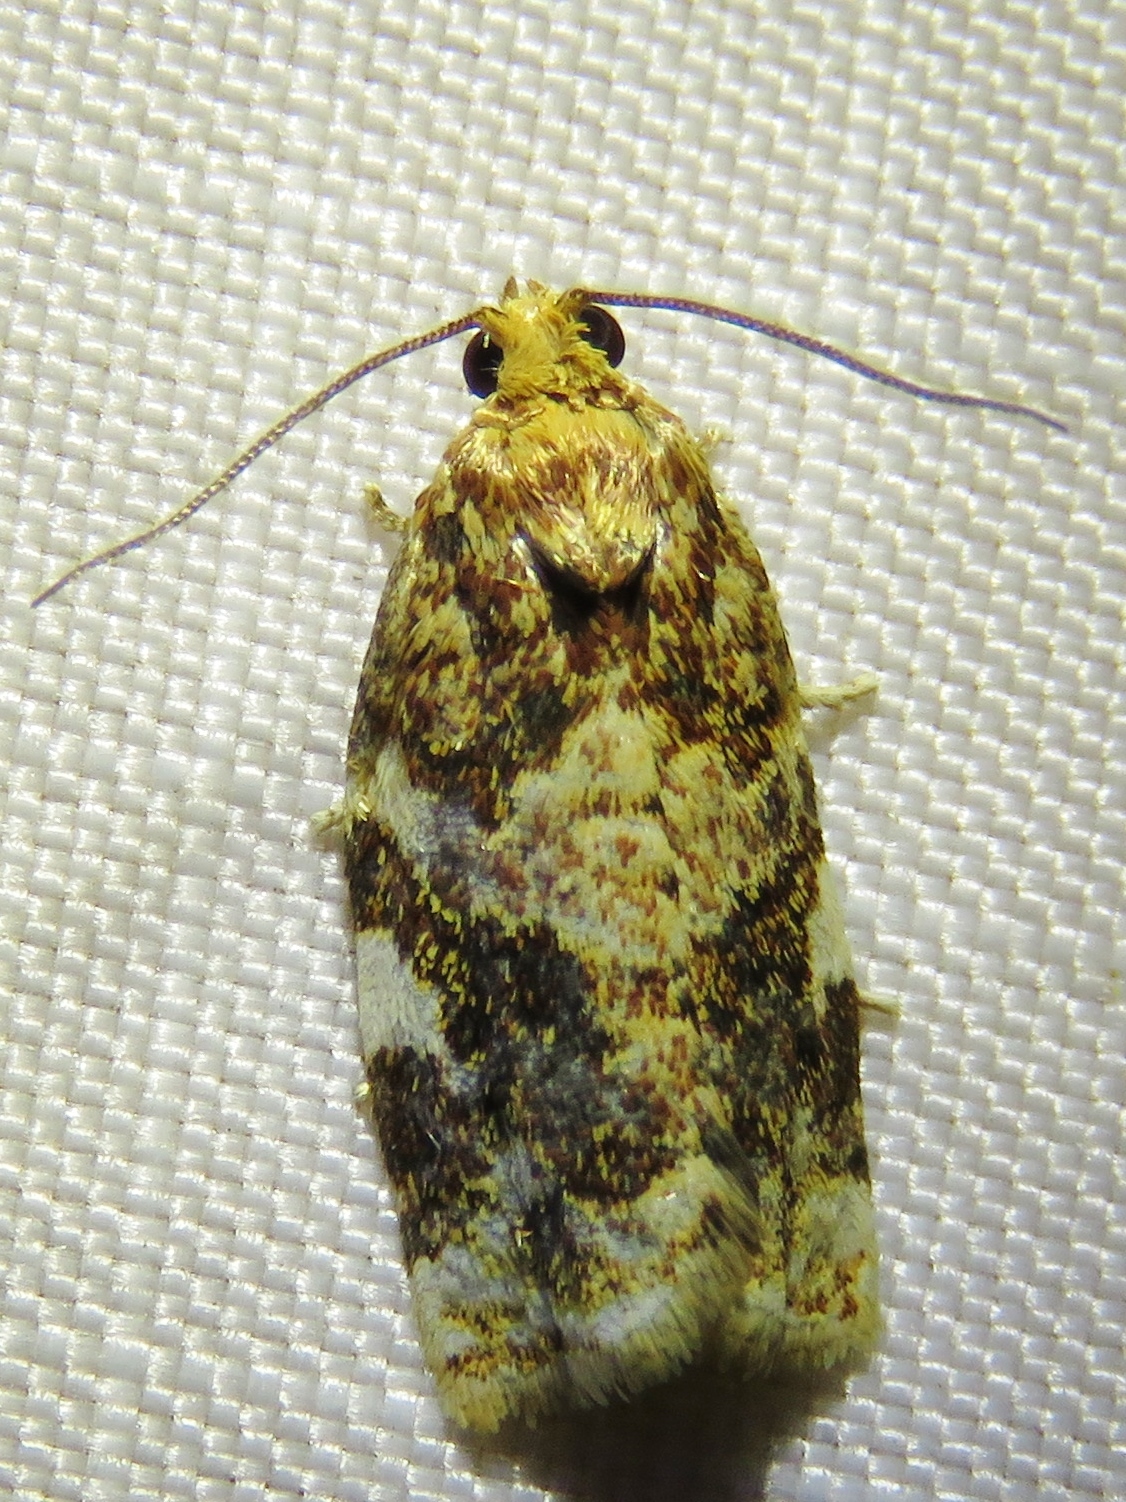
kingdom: Animalia
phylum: Arthropoda
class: Insecta
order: Lepidoptera
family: Tortricidae
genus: Archips
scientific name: Archips argyrospila
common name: Fruit-tree leafroller moth
